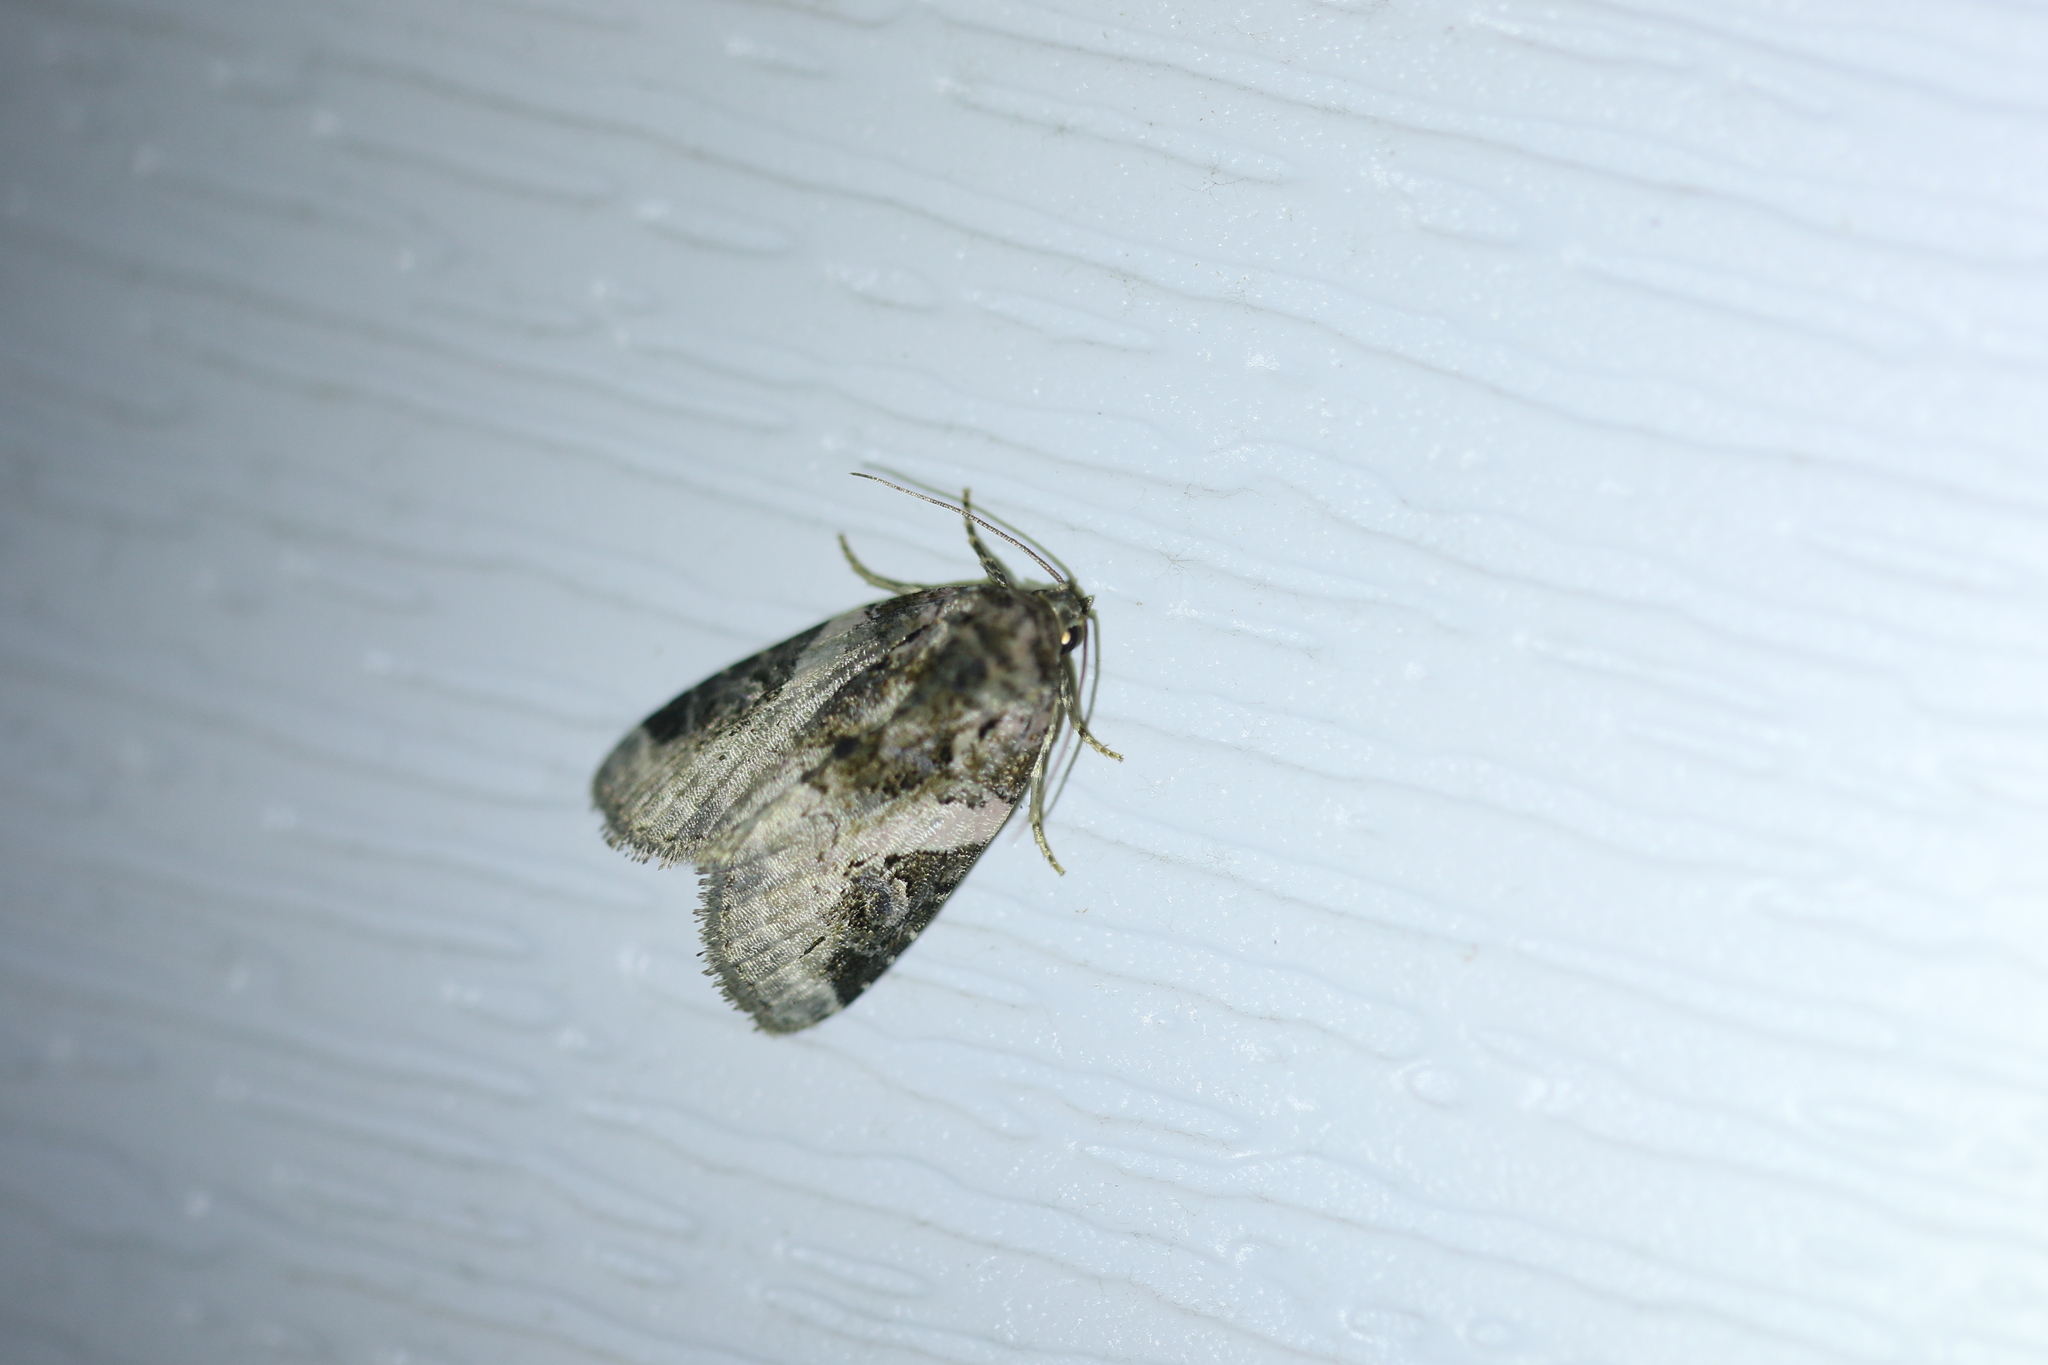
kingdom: Animalia
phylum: Arthropoda
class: Insecta
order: Lepidoptera
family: Noctuidae
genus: Pseudeustrotia
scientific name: Pseudeustrotia carneola
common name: Pink-barred lithacodia moth
